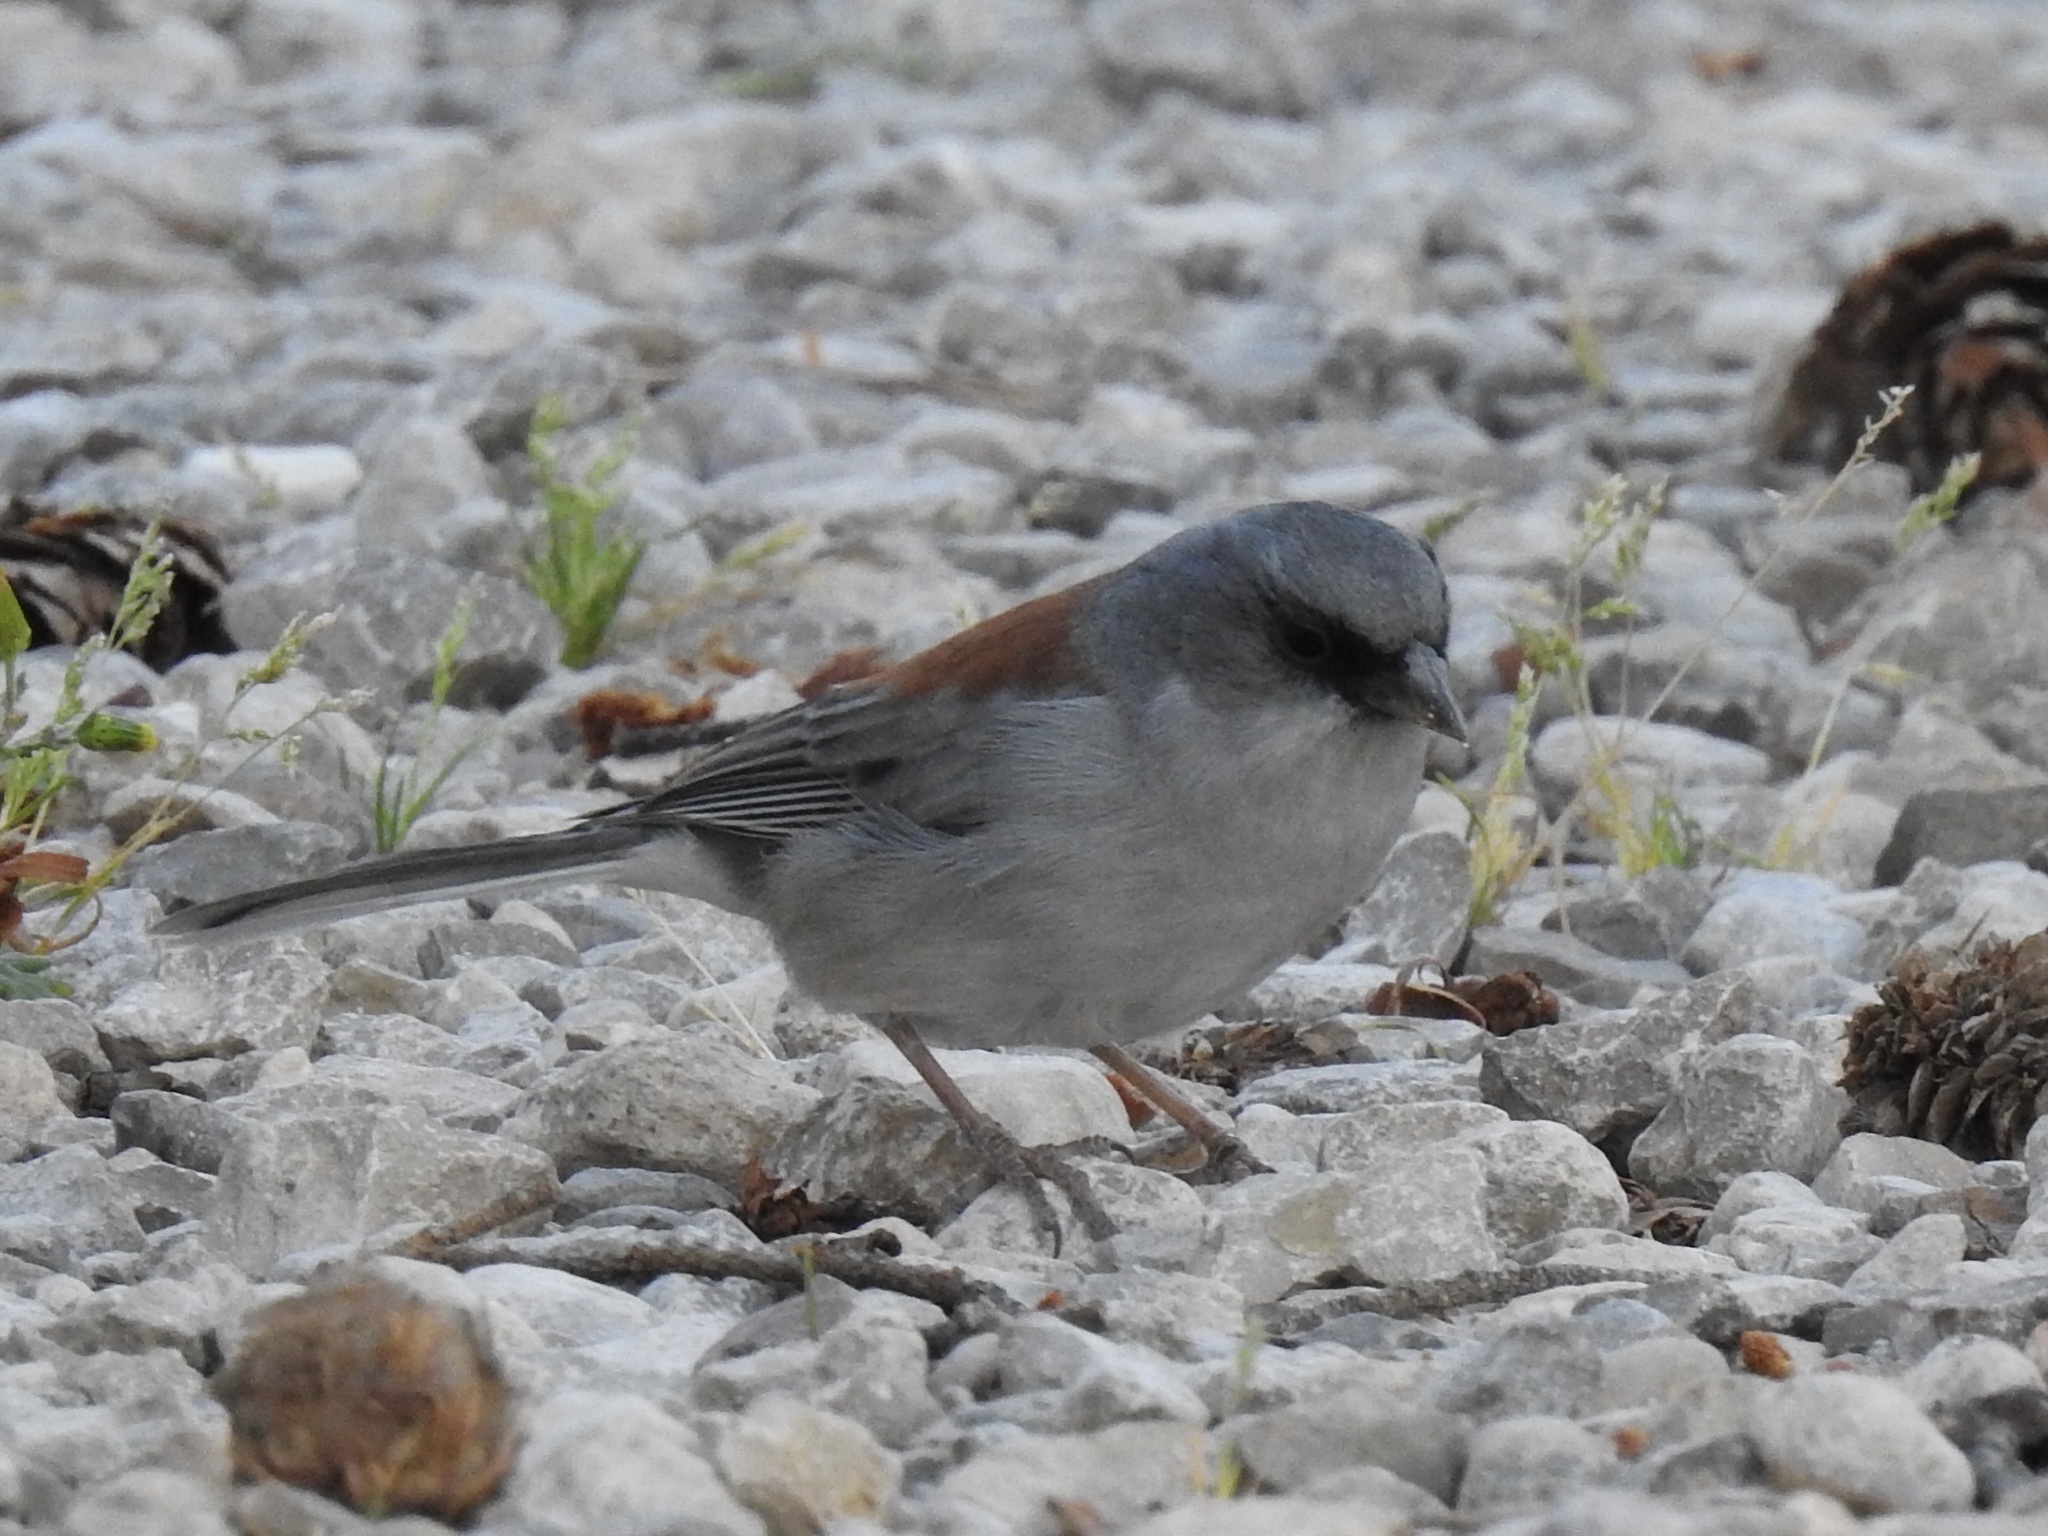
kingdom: Animalia
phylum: Chordata
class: Aves
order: Passeriformes
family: Passerellidae
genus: Junco
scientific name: Junco hyemalis
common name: Dark-eyed junco
